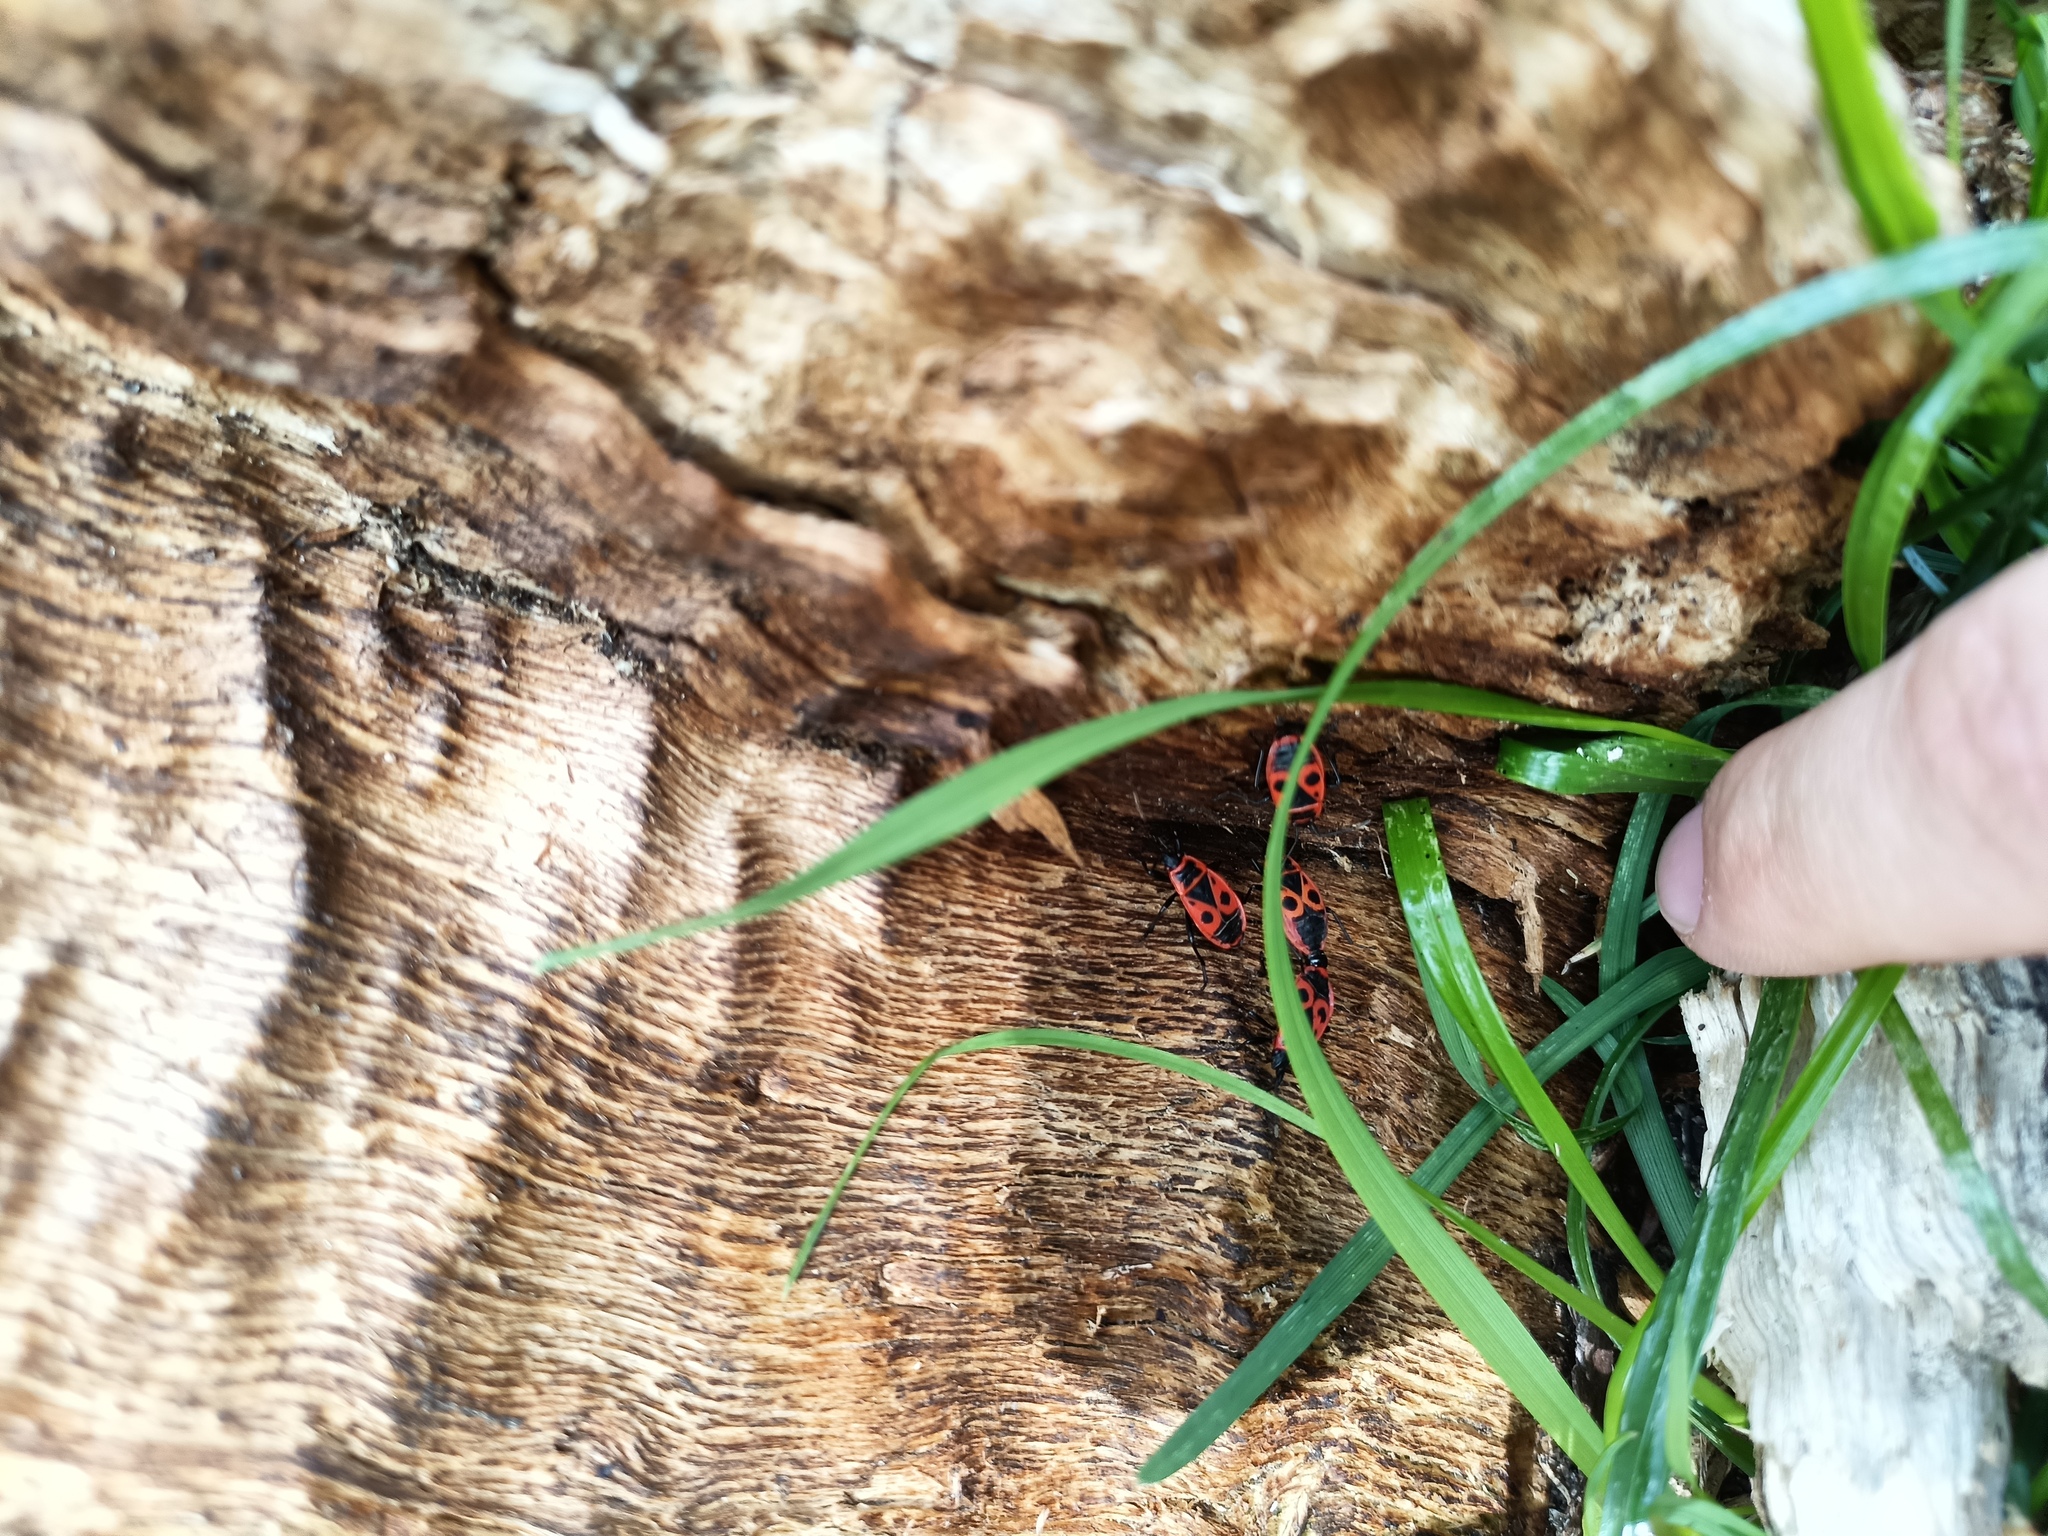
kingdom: Animalia
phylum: Arthropoda
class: Insecta
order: Hemiptera
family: Pyrrhocoridae
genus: Pyrrhocoris
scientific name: Pyrrhocoris apterus
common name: Firebug
